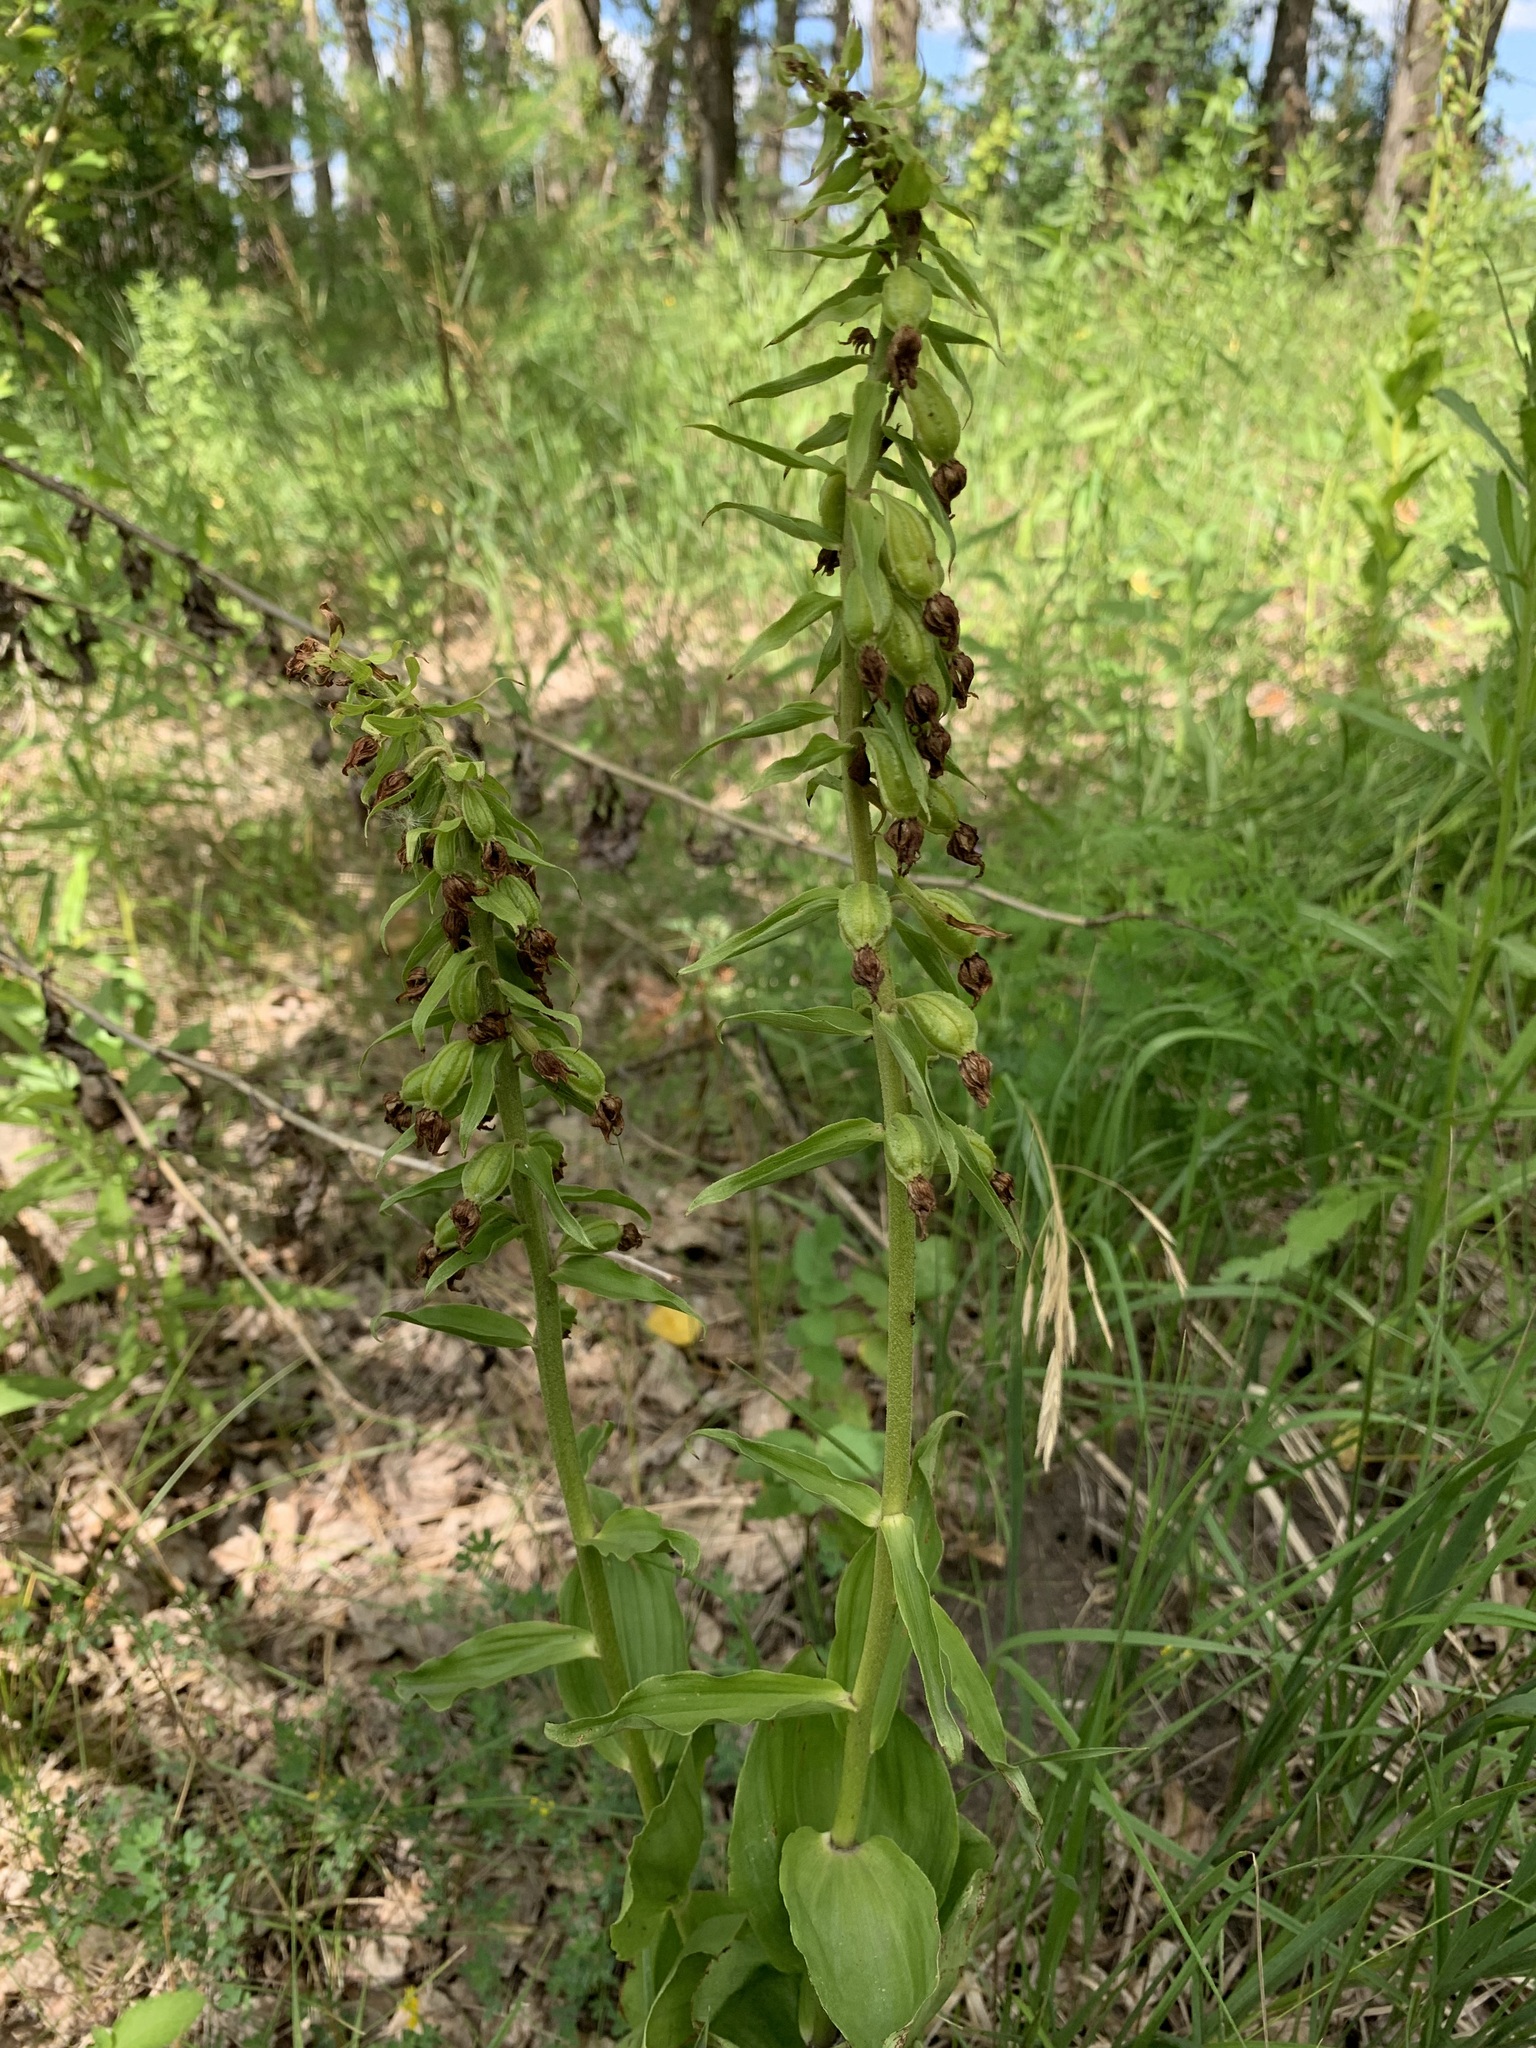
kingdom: Plantae
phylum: Tracheophyta
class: Liliopsida
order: Asparagales
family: Orchidaceae
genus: Epipactis
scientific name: Epipactis helleborine
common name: Broad-leaved helleborine
